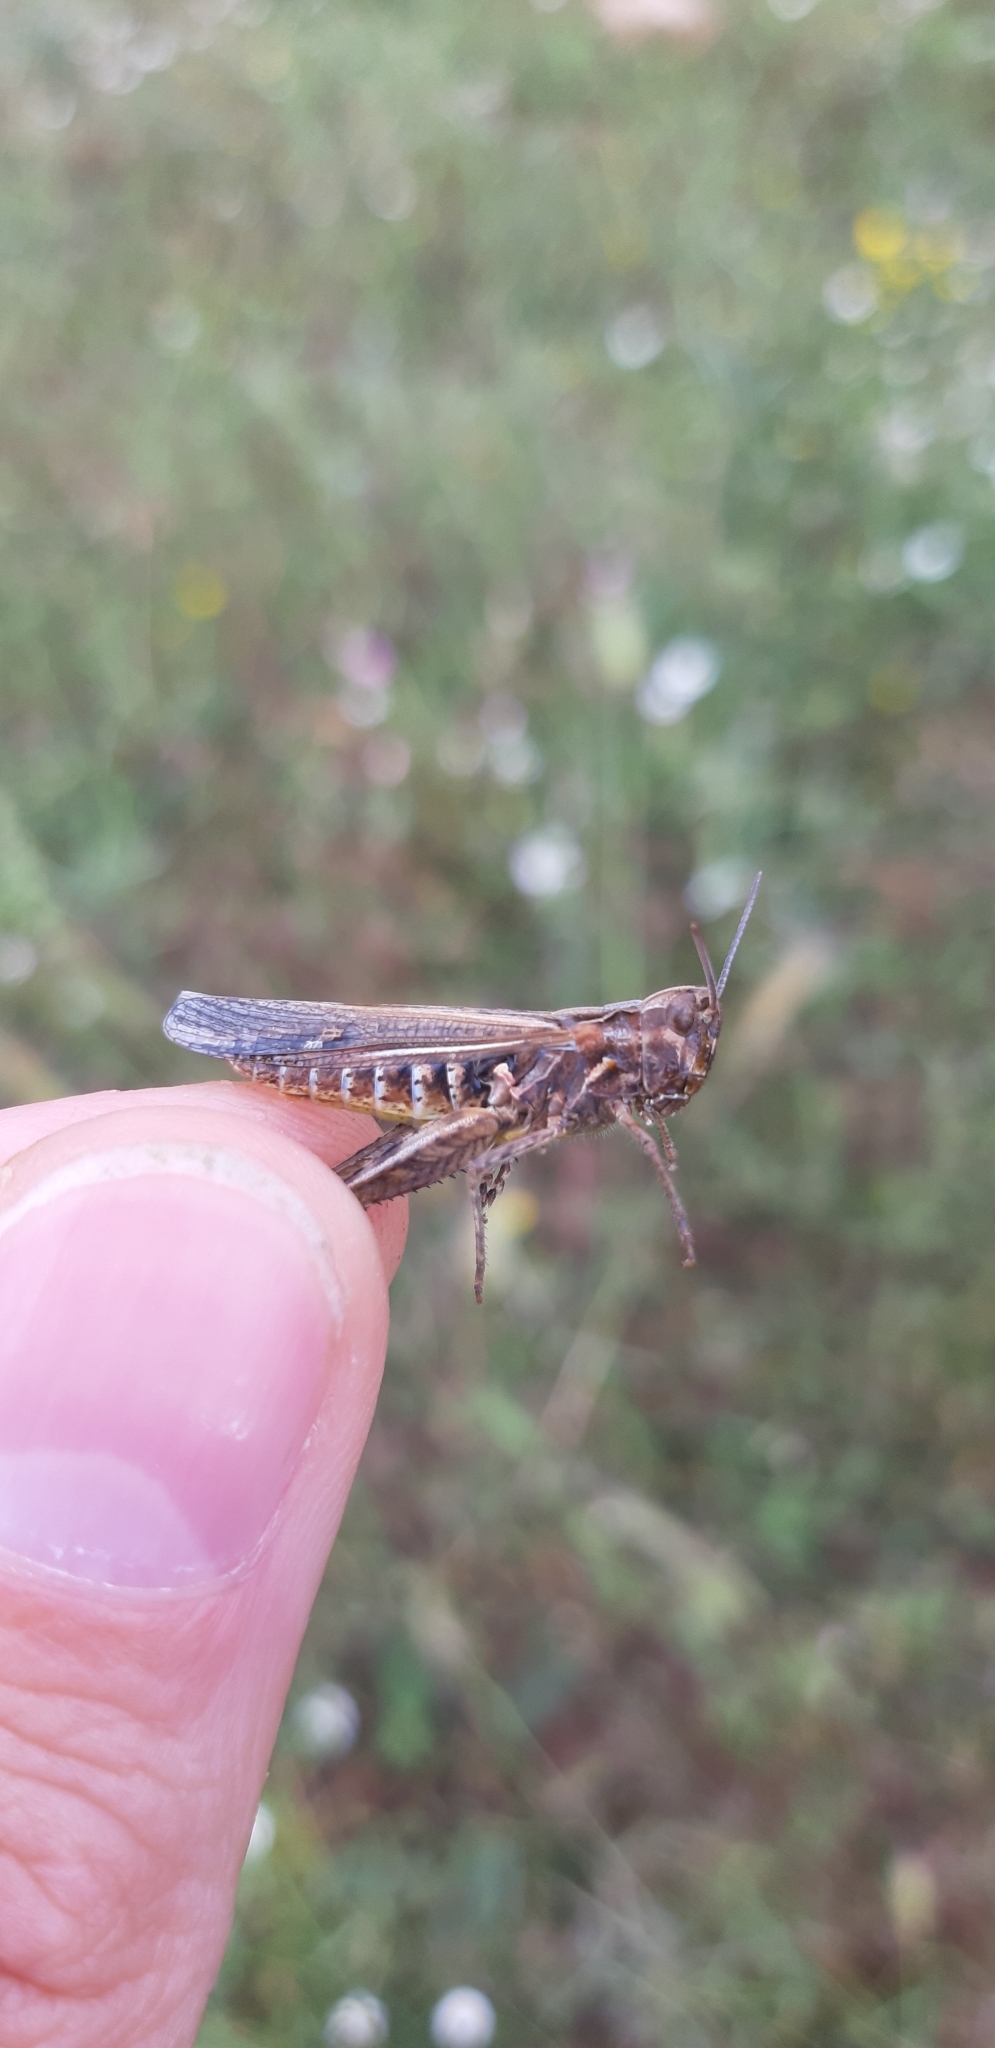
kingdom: Animalia
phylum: Arthropoda
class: Insecta
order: Orthoptera
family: Acrididae
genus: Chorthippus
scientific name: Chorthippus brunneus
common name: Field grasshopper
